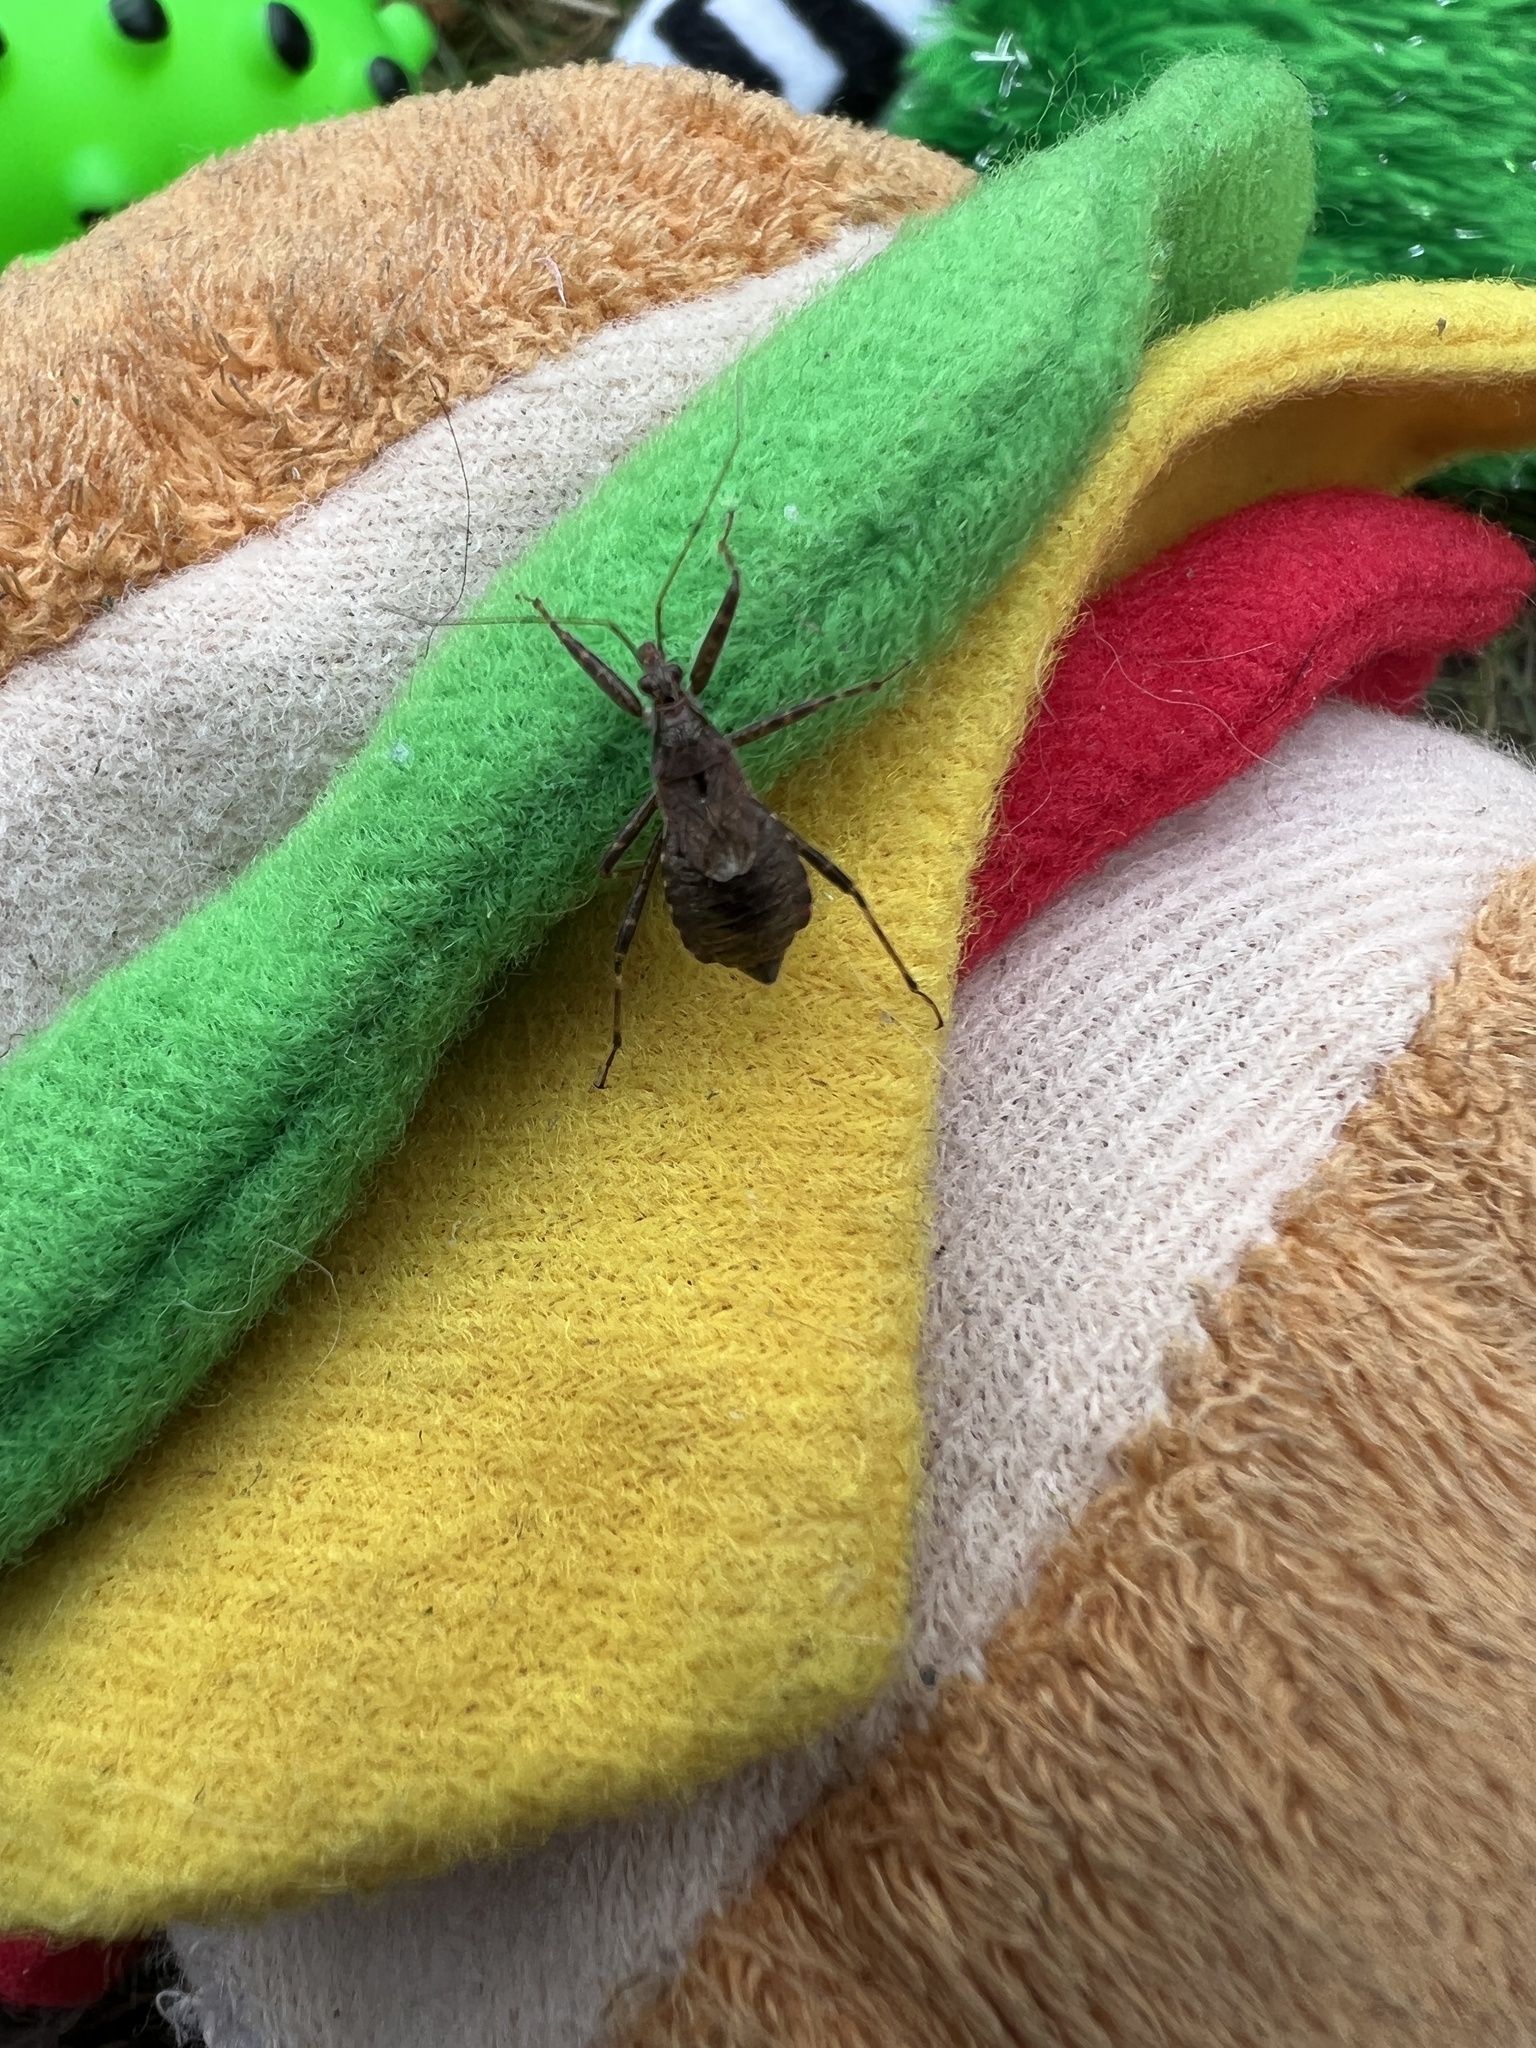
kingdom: Animalia
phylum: Arthropoda
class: Insecta
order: Hemiptera
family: Nabidae
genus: Himacerus
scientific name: Himacerus apterus
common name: Tree damsel bug
